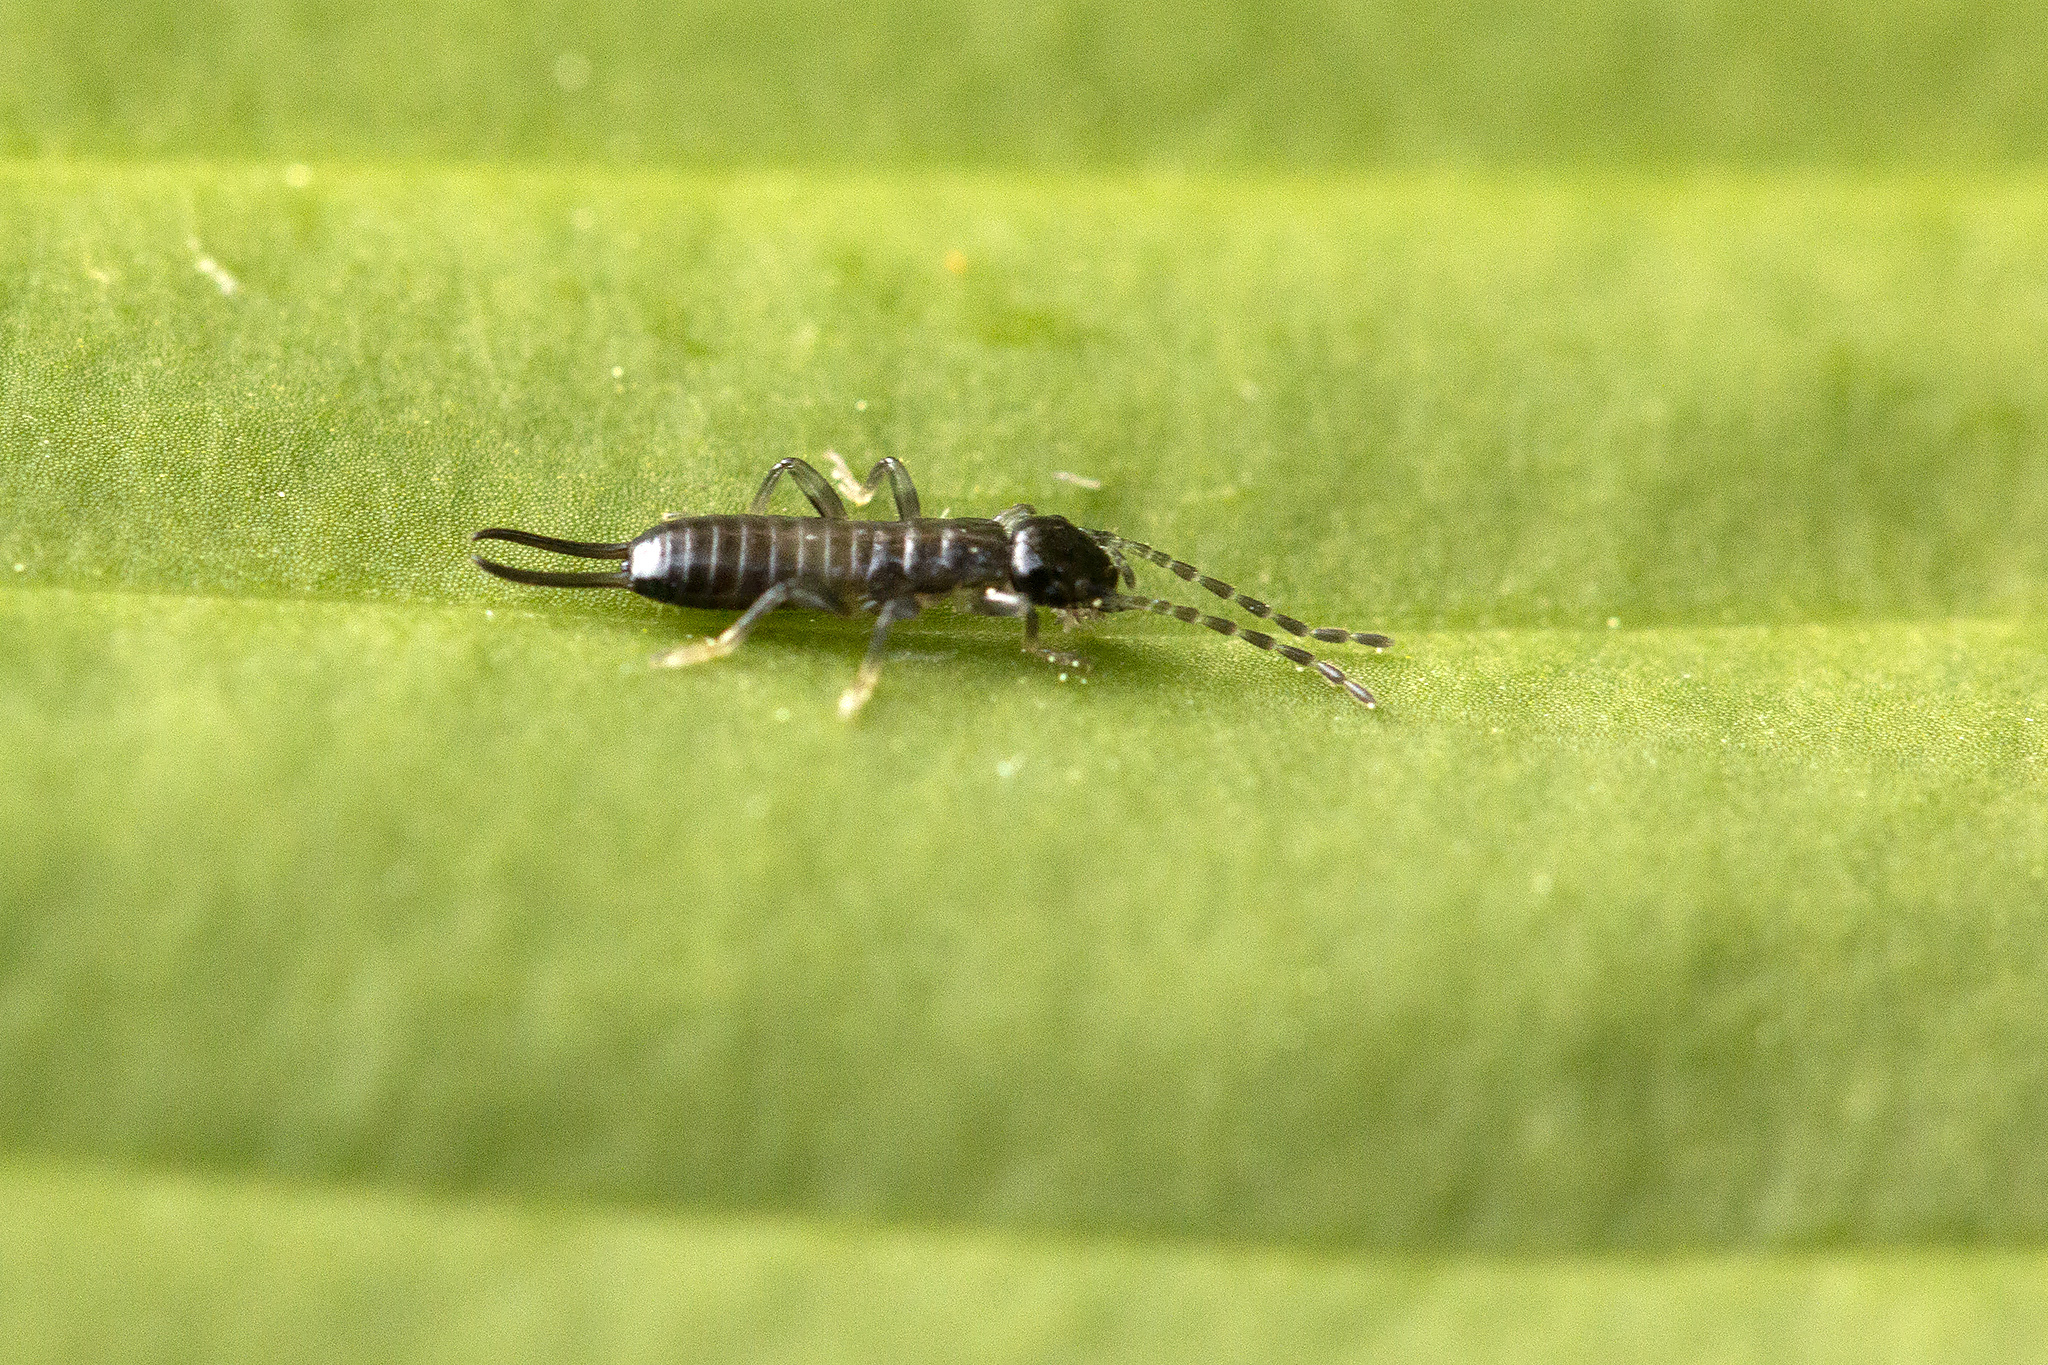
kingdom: Animalia
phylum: Arthropoda
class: Insecta
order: Dermaptera
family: Forficulidae
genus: Apterygida
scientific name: Apterygida albipennis
